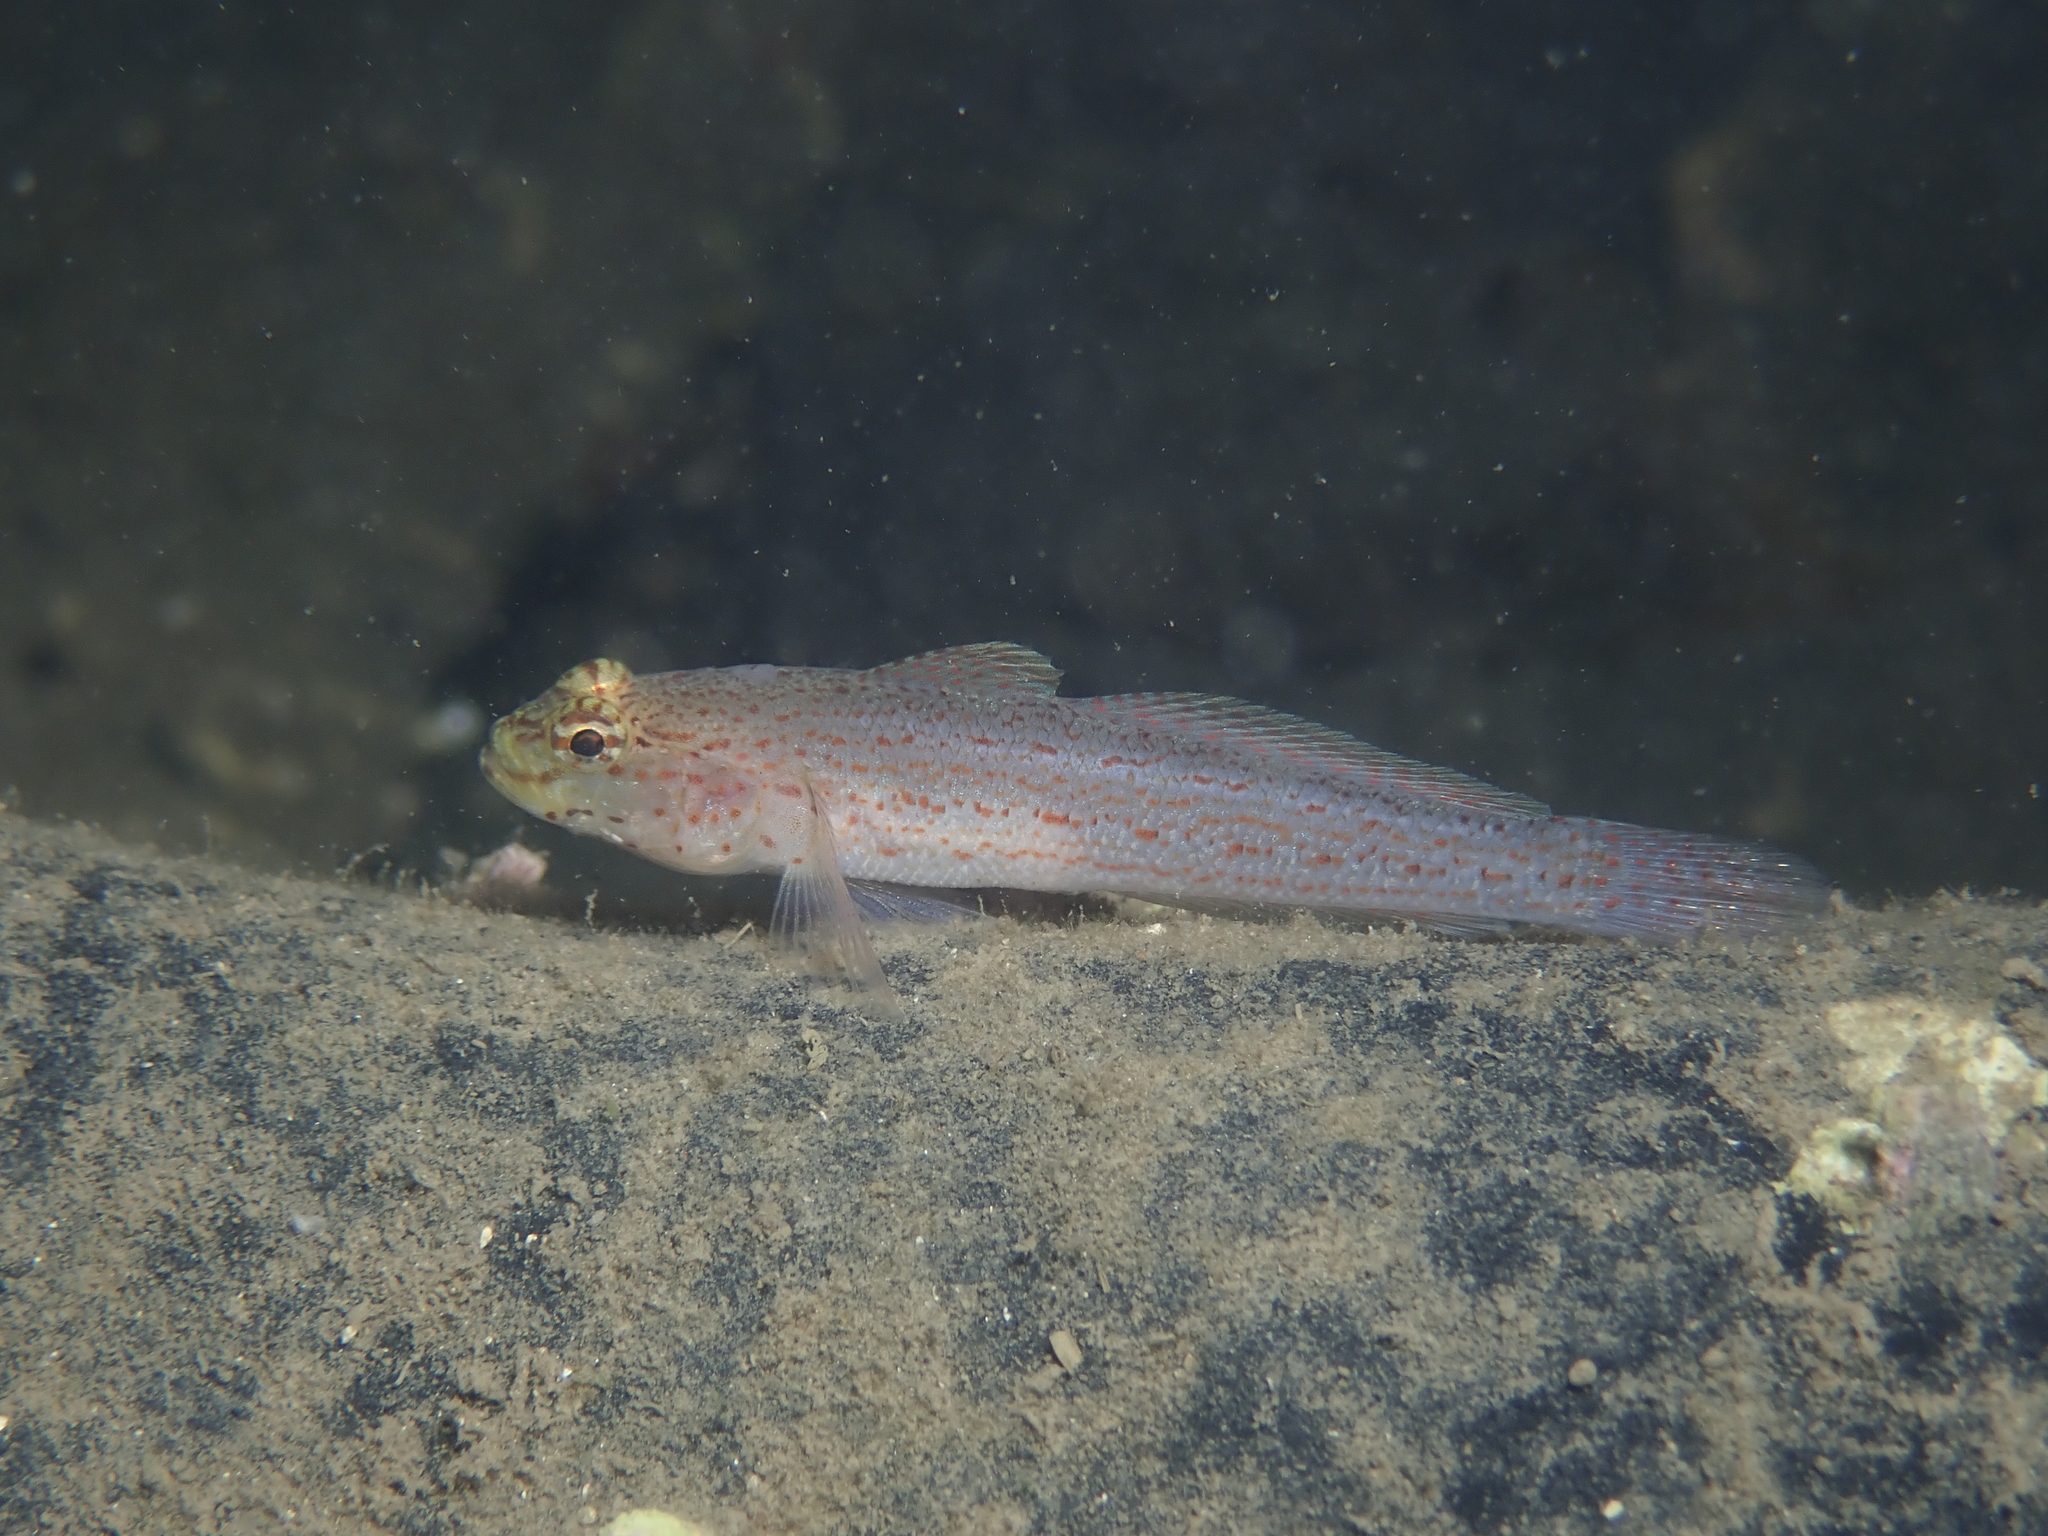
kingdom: Animalia
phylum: Chordata
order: Perciformes
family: Gobiidae
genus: Gobius
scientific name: Gobius xanthocephalus
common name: Golden goby
